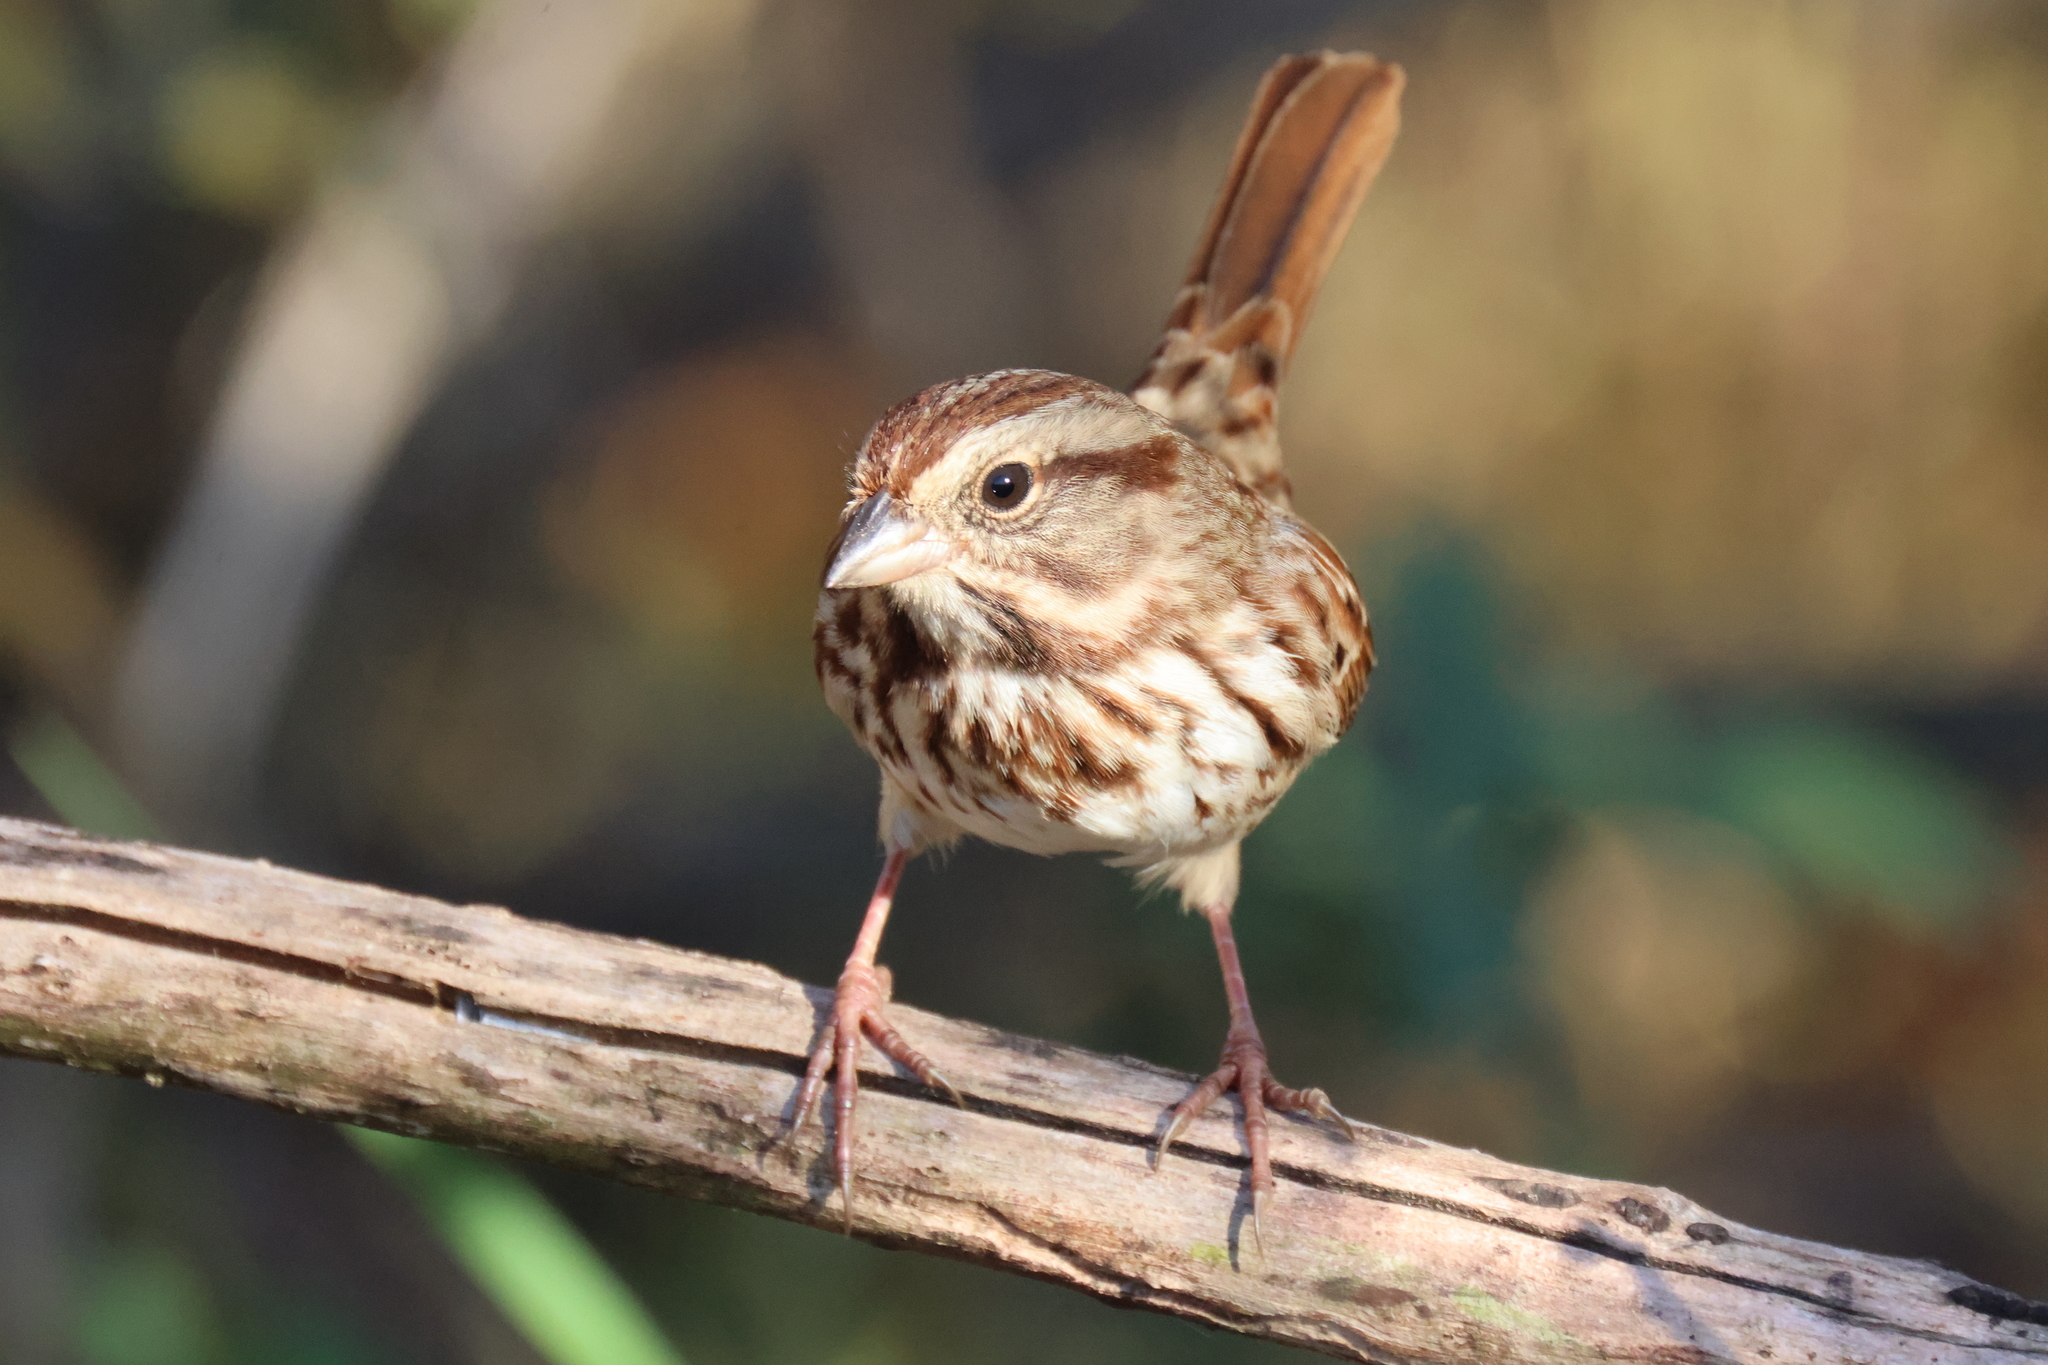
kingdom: Animalia
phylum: Chordata
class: Aves
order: Passeriformes
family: Passerellidae
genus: Melospiza
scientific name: Melospiza melodia
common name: Song sparrow
